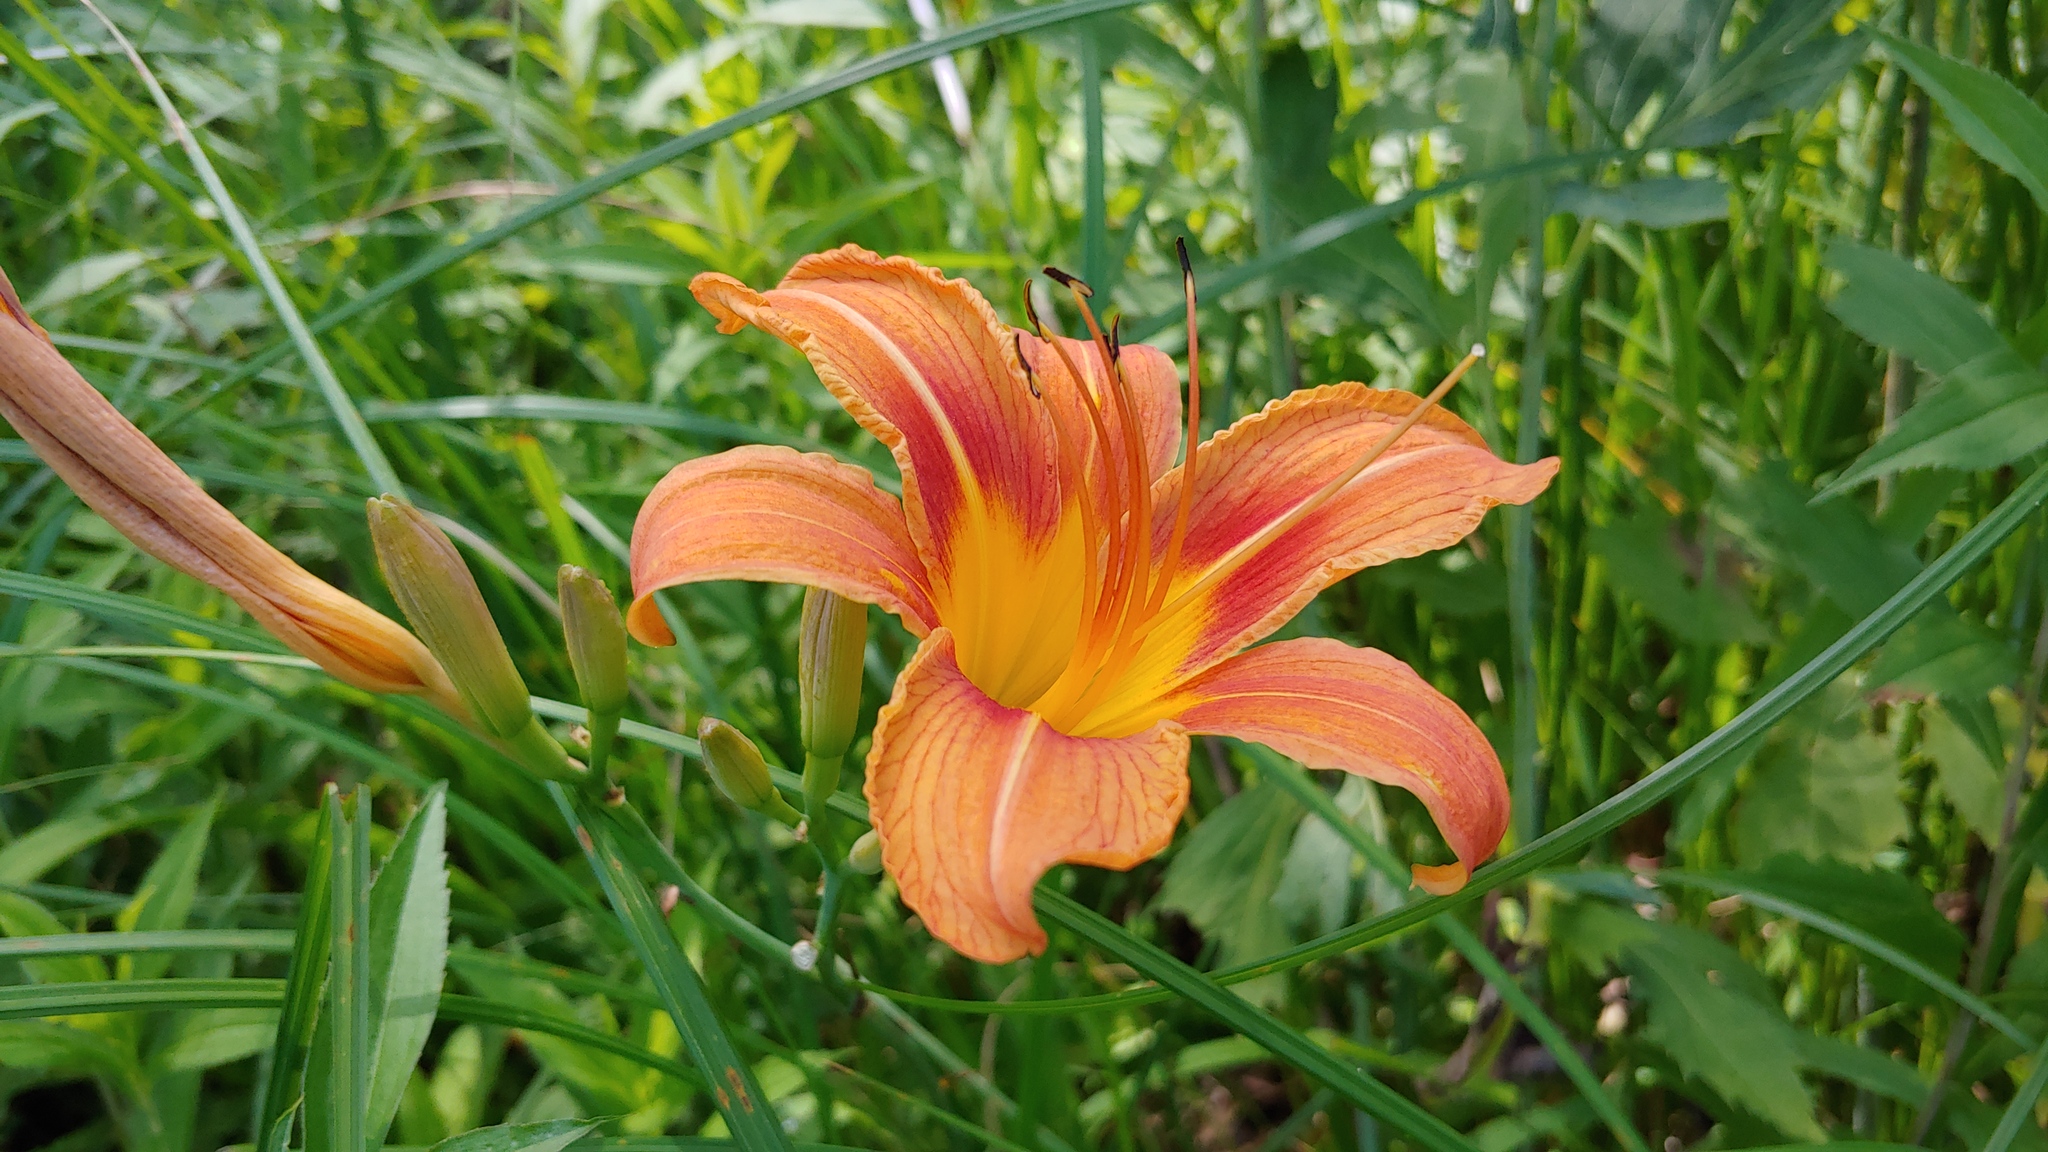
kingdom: Plantae
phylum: Tracheophyta
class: Liliopsida
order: Asparagales
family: Asphodelaceae
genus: Hemerocallis
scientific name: Hemerocallis fulva
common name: Orange day-lily
